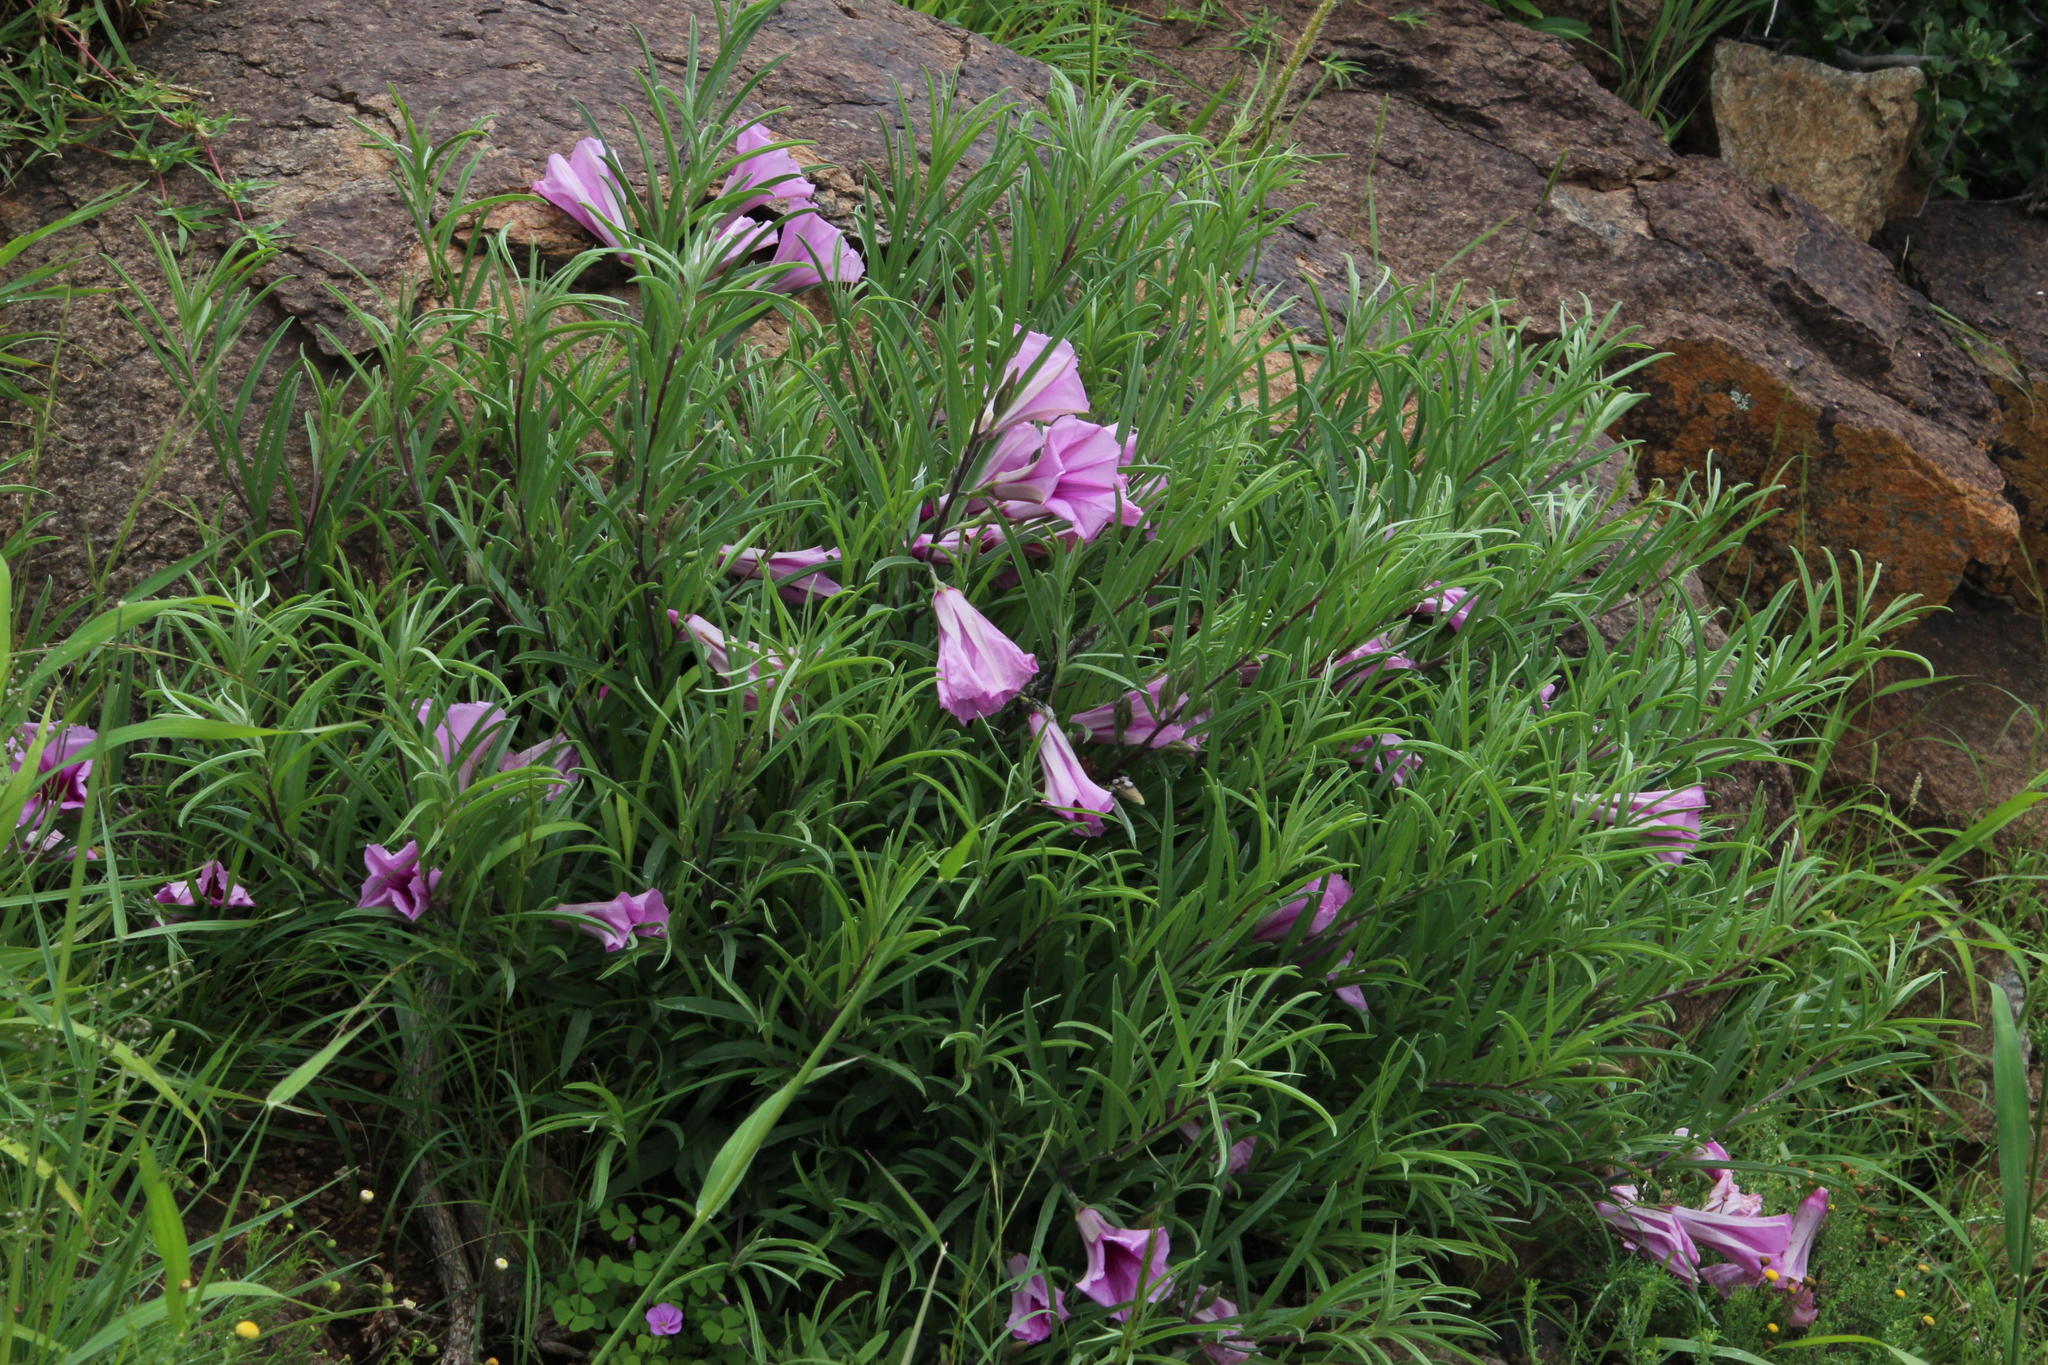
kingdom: Plantae
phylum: Tracheophyta
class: Magnoliopsida
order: Solanales
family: Convolvulaceae
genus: Ipomoea
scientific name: Ipomoea oenotheroides
